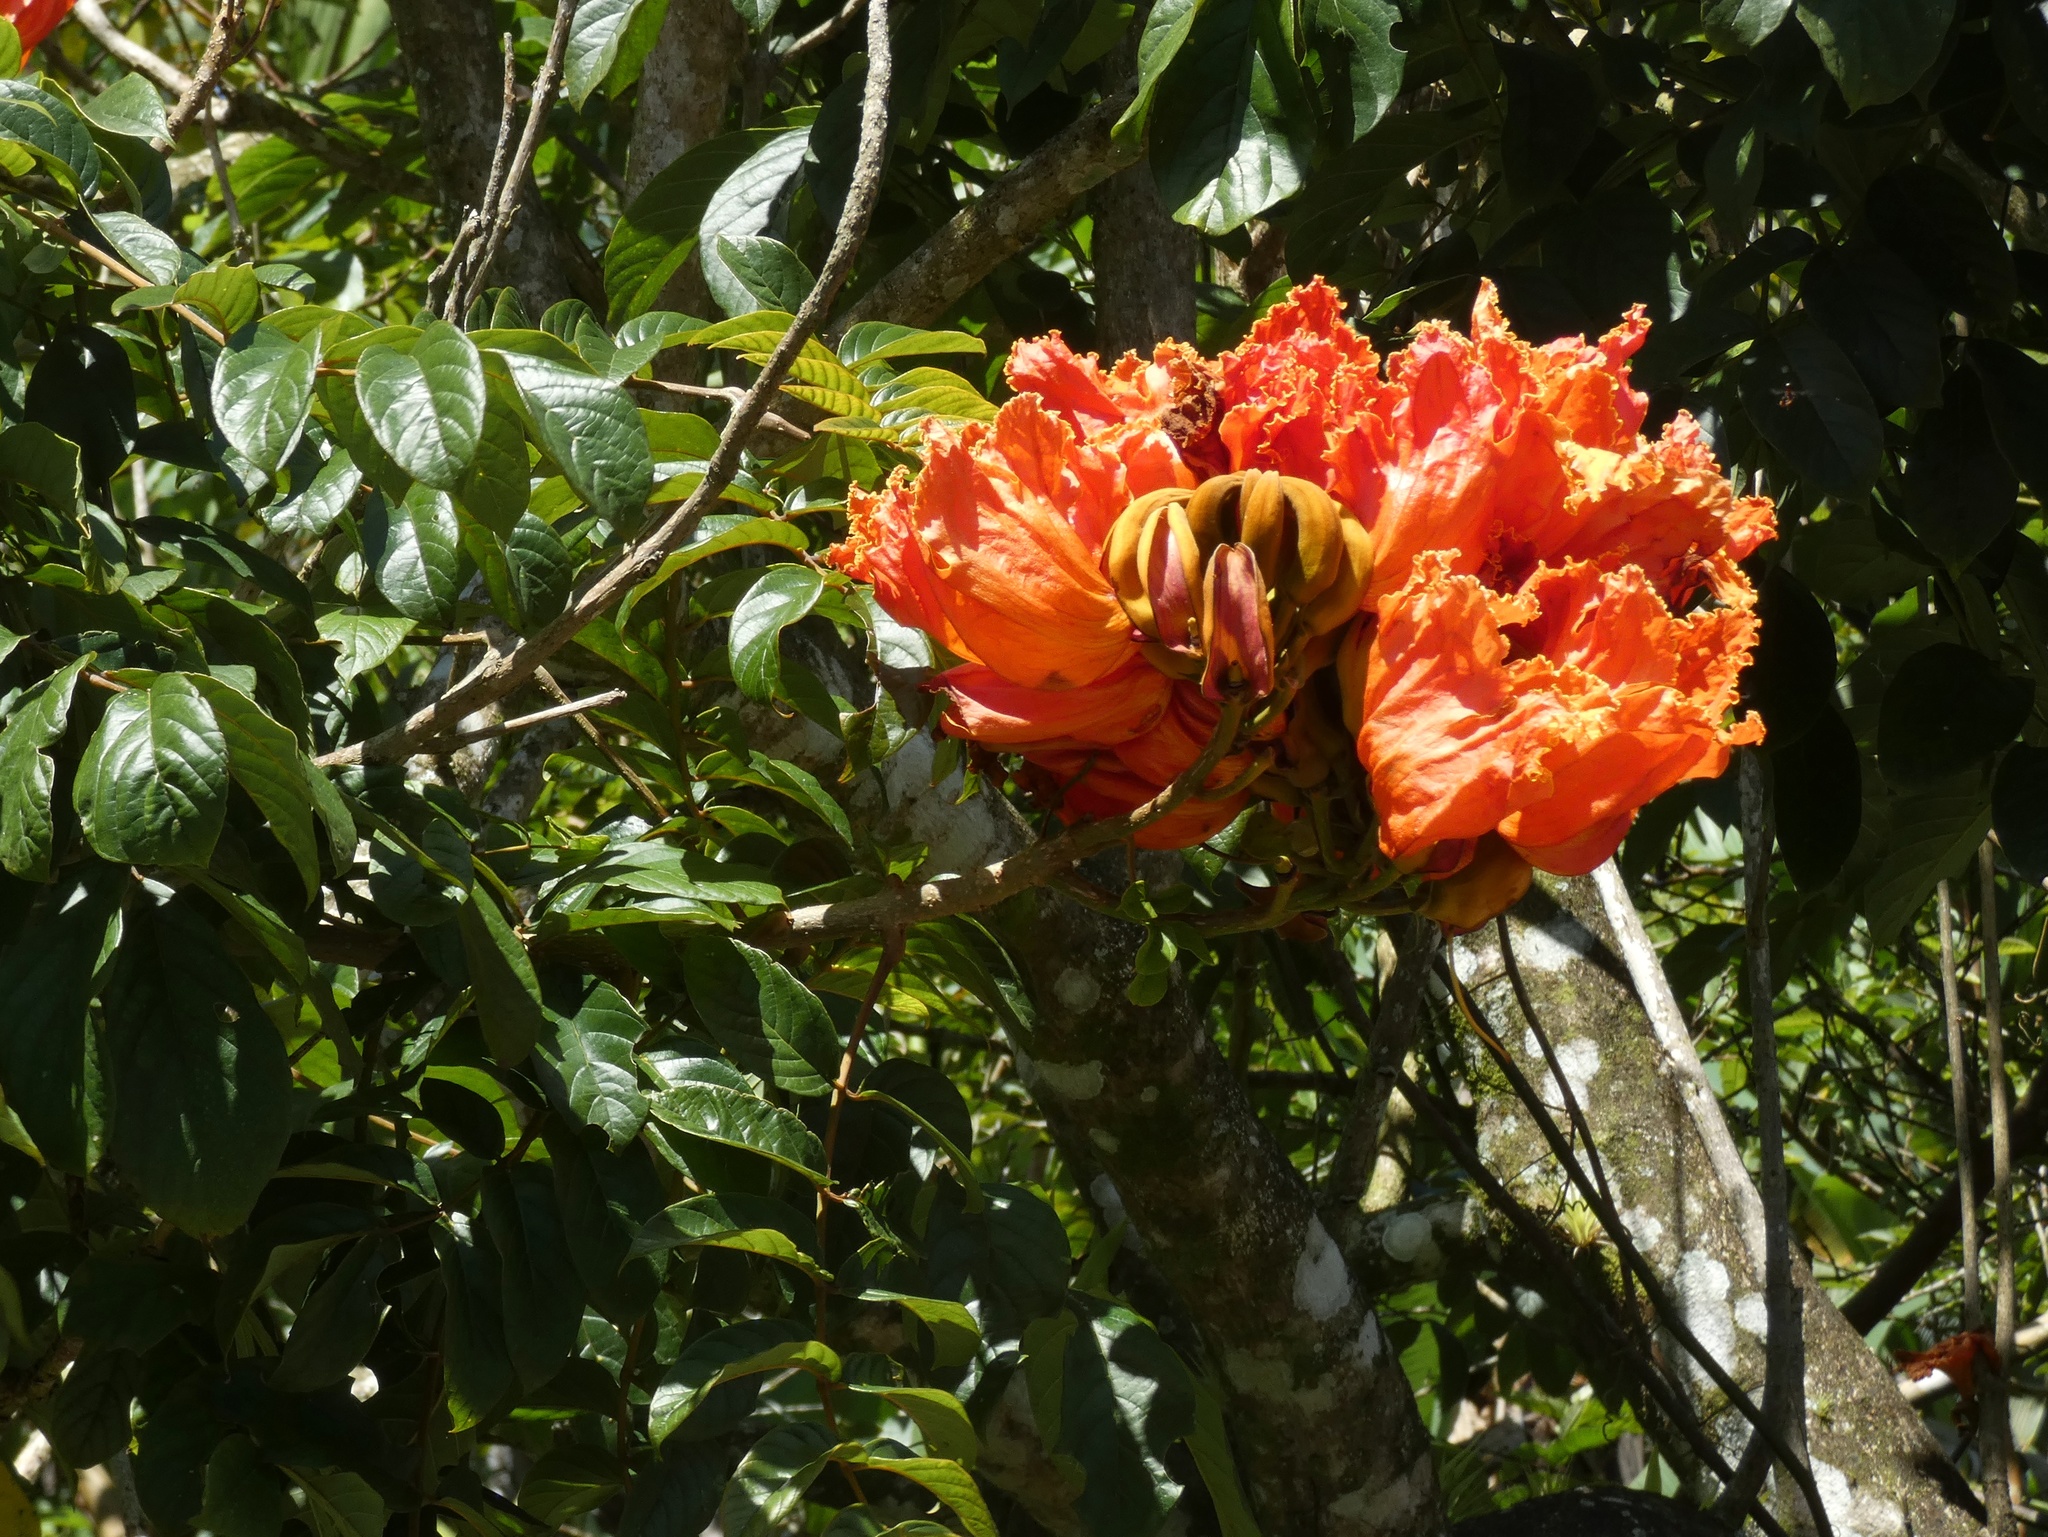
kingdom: Plantae
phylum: Tracheophyta
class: Magnoliopsida
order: Lamiales
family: Bignoniaceae
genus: Spathodea
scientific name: Spathodea campanulata
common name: African tuliptree
